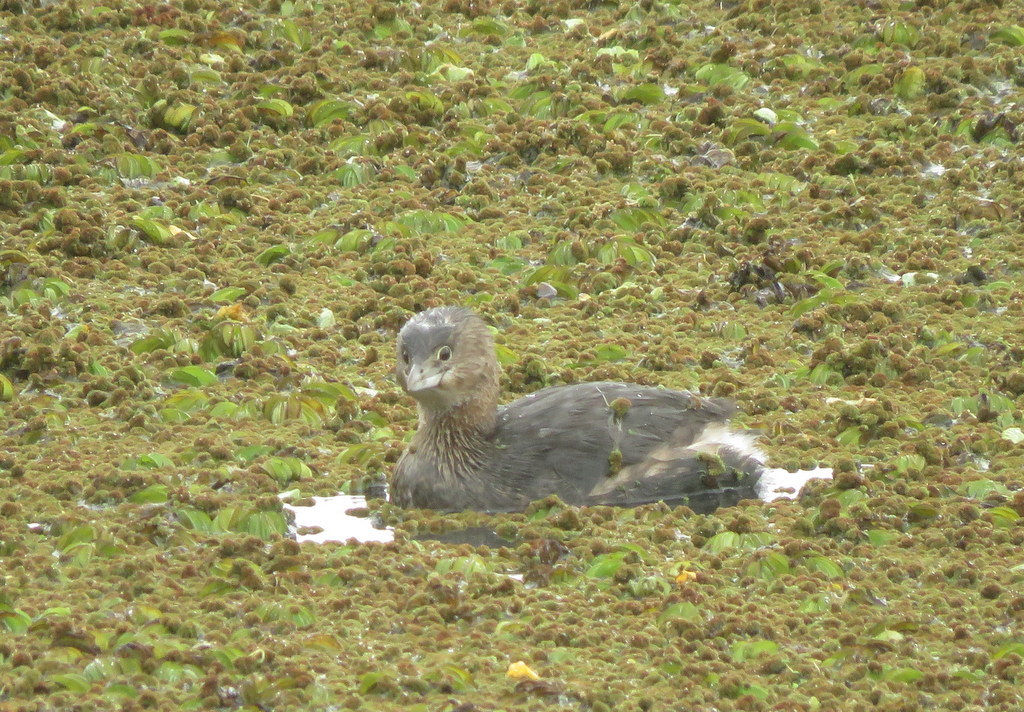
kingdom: Animalia
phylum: Chordata
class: Aves
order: Podicipediformes
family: Podicipedidae
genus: Podilymbus
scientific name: Podilymbus podiceps
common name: Pied-billed grebe
